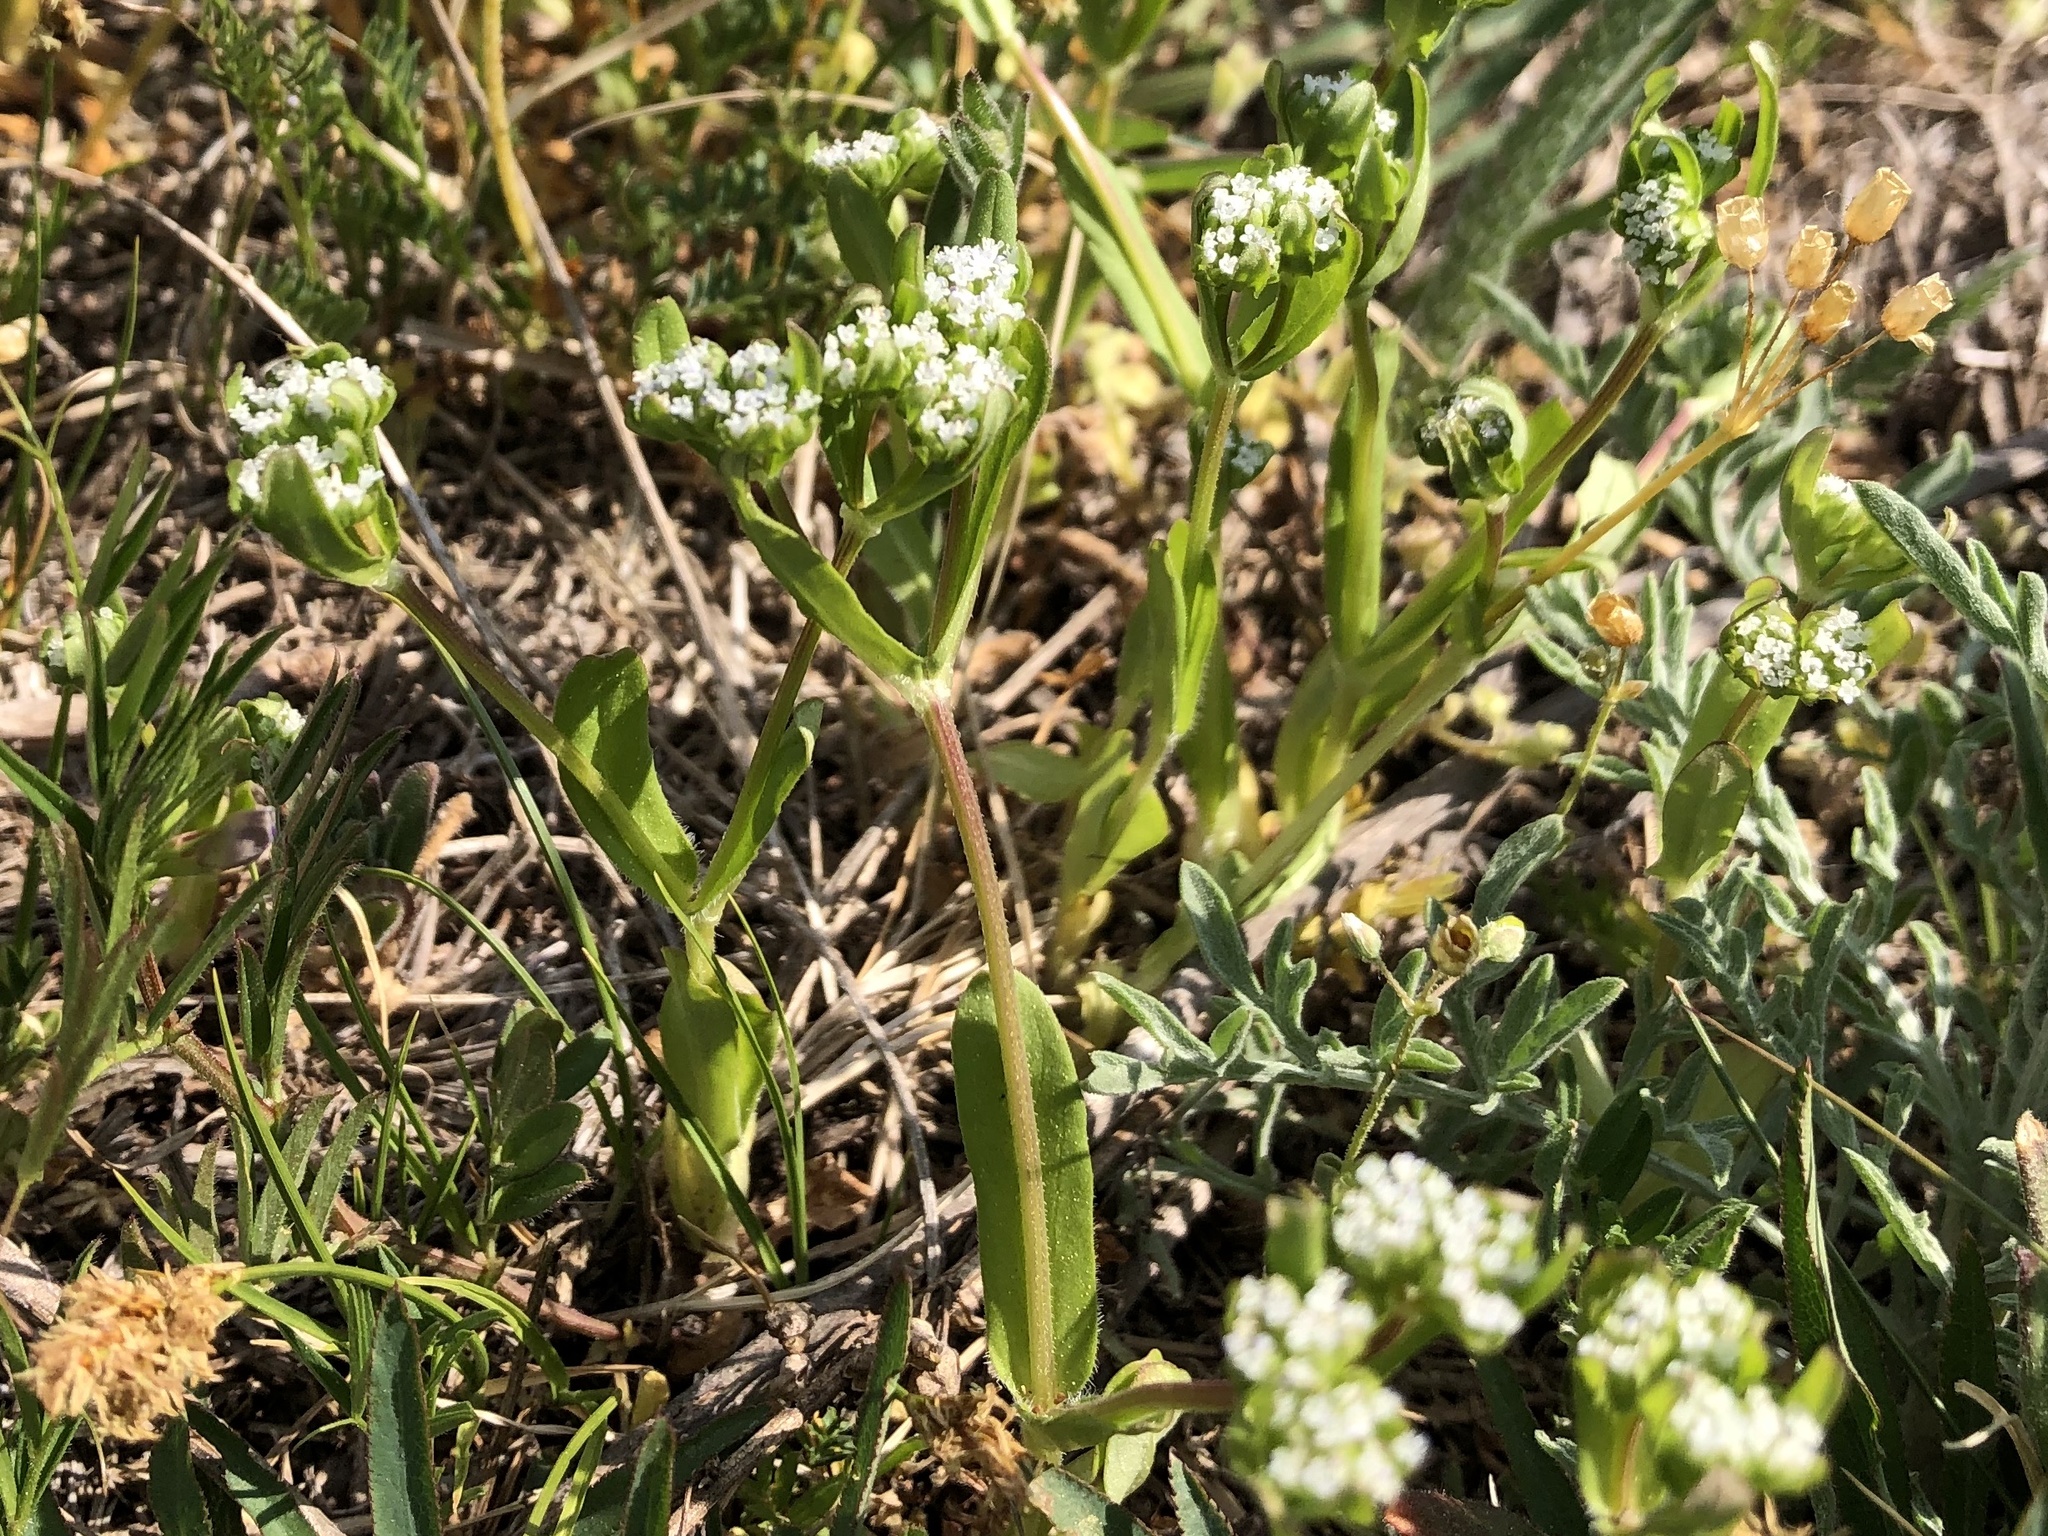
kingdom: Plantae
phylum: Tracheophyta
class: Magnoliopsida
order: Dipsacales
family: Caprifoliaceae
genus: Valerianella
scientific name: Valerianella locusta
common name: Common cornsalad
